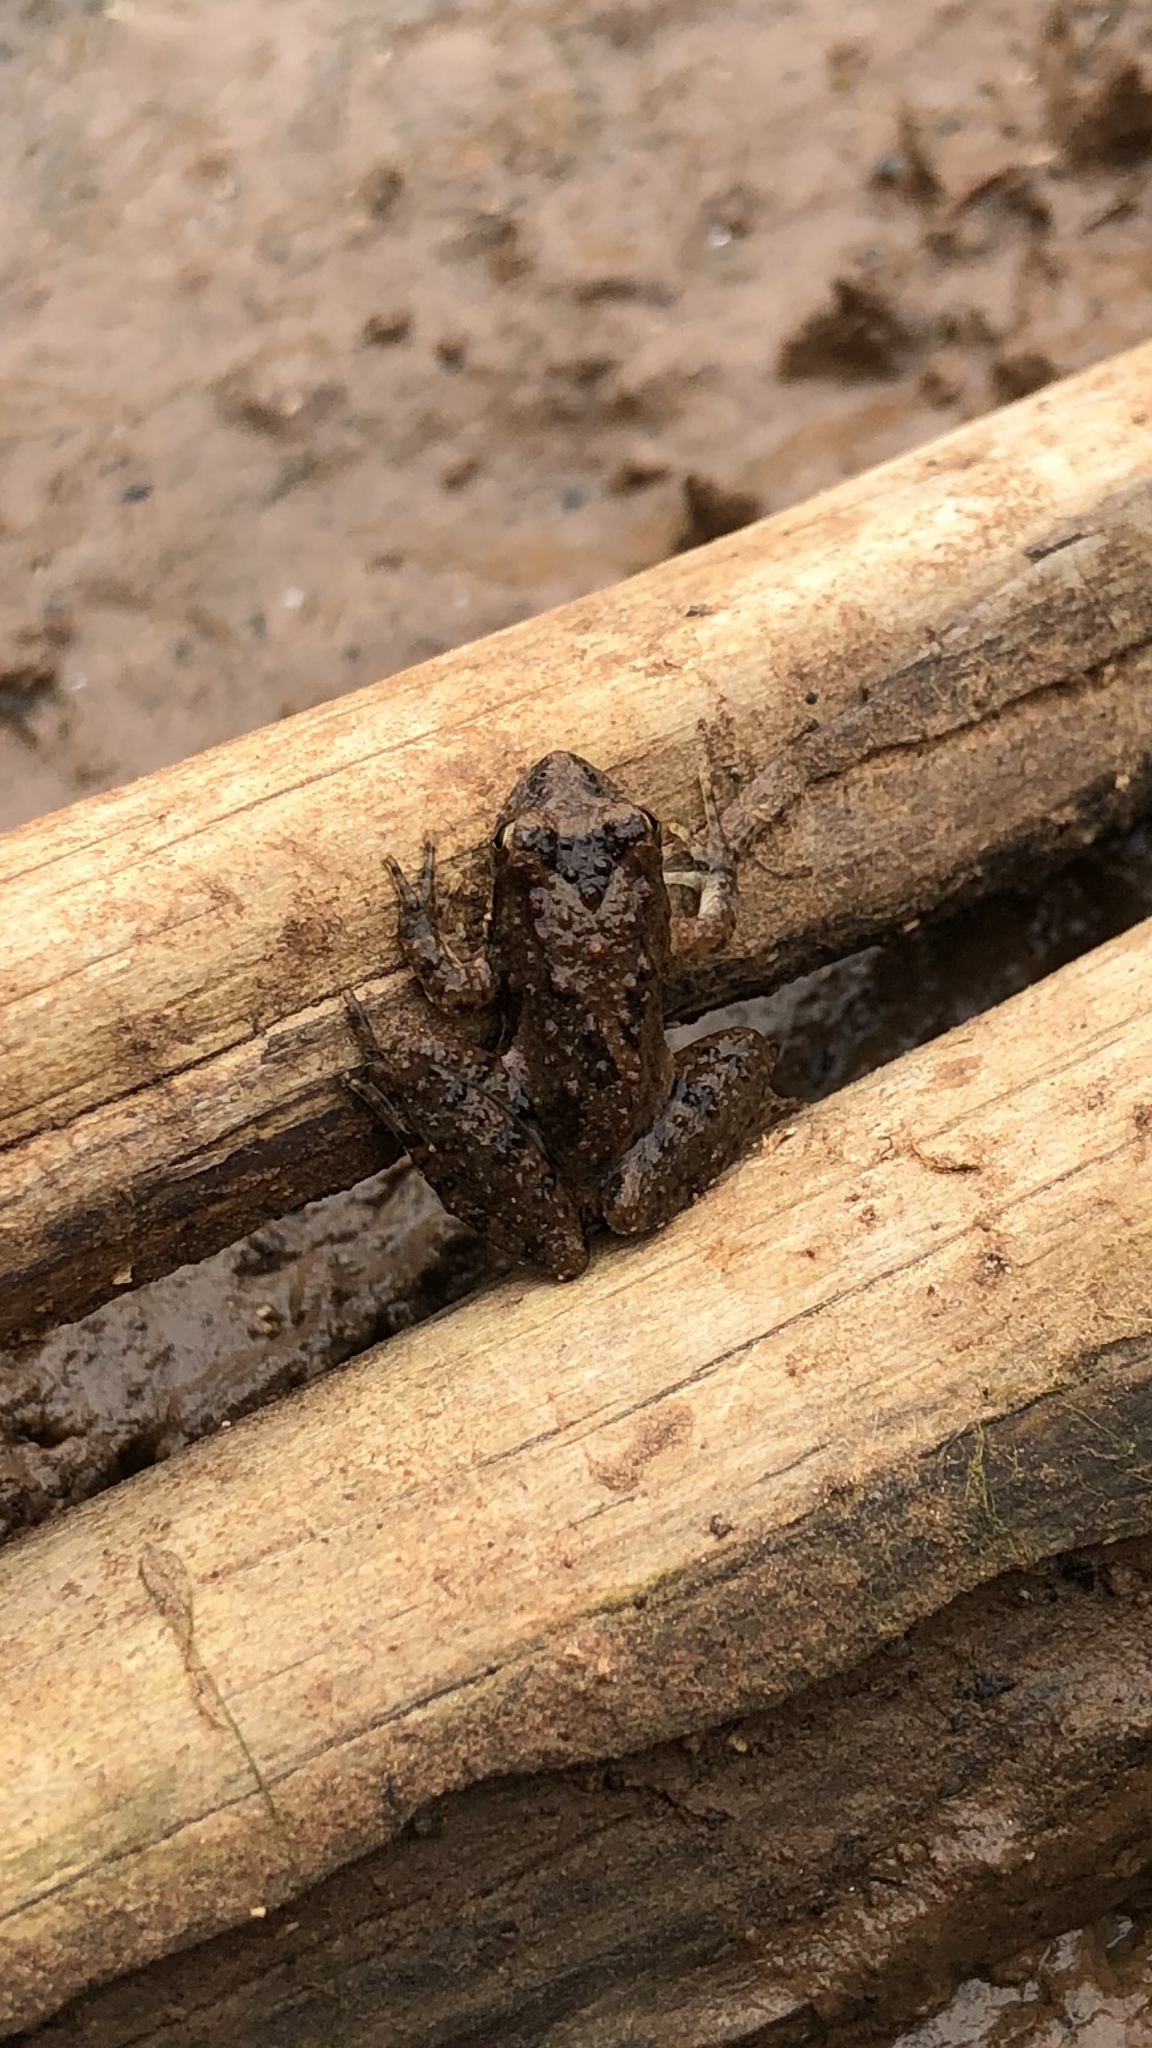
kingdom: Animalia
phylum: Chordata
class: Amphibia
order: Anura
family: Hylidae
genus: Acris
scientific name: Acris blanchardi
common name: Blanchard's cricket frog
